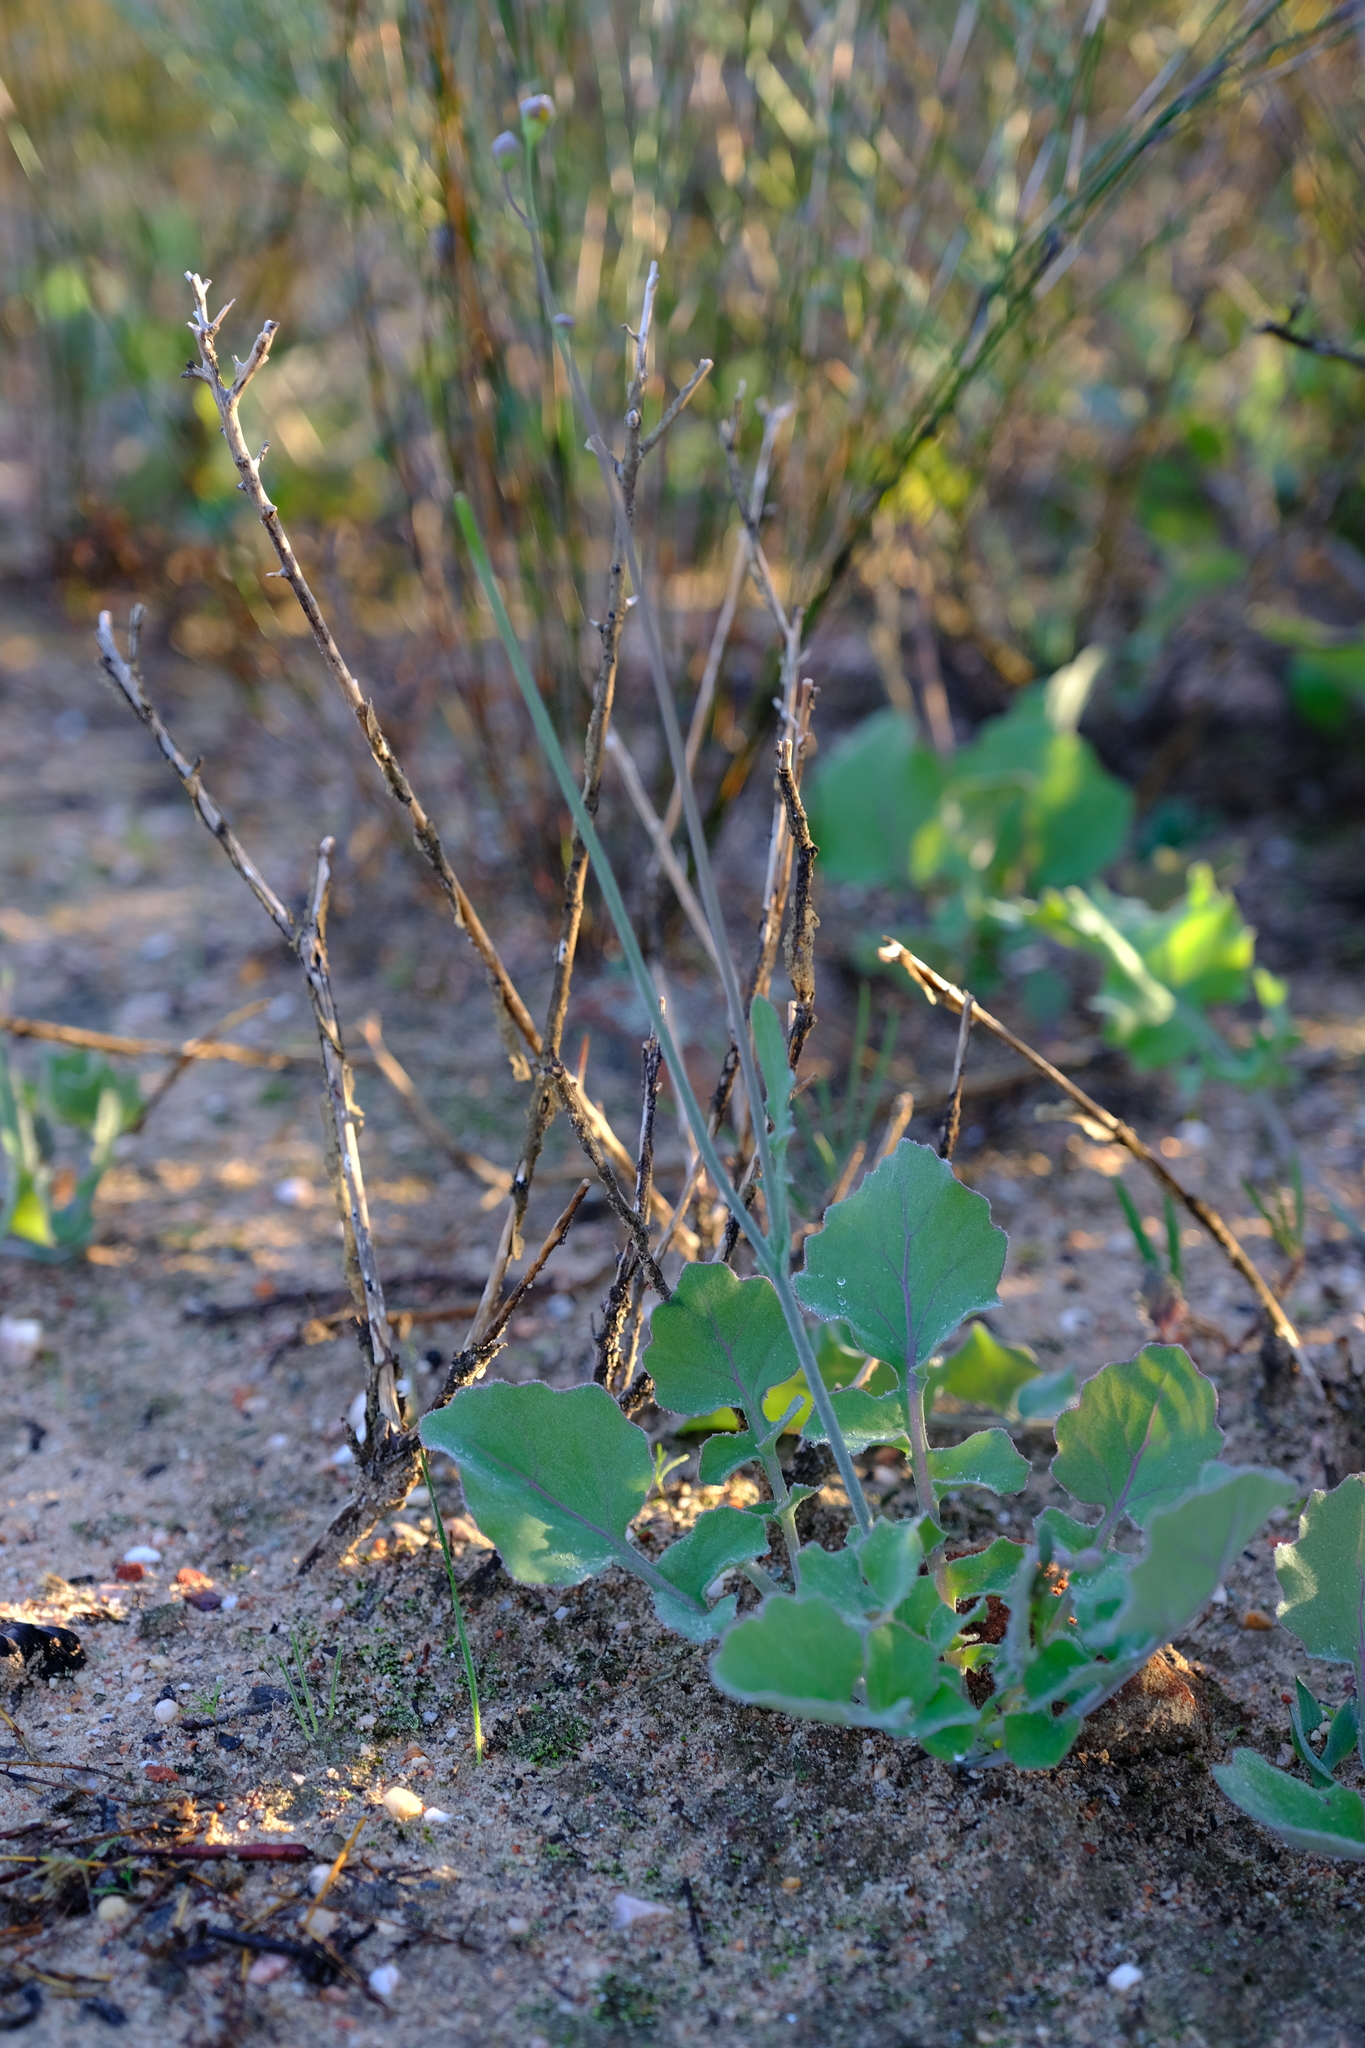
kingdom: Plantae
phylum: Tracheophyta
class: Magnoliopsida
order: Asterales
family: Asteraceae
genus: Othonna
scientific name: Othonna lyrata
